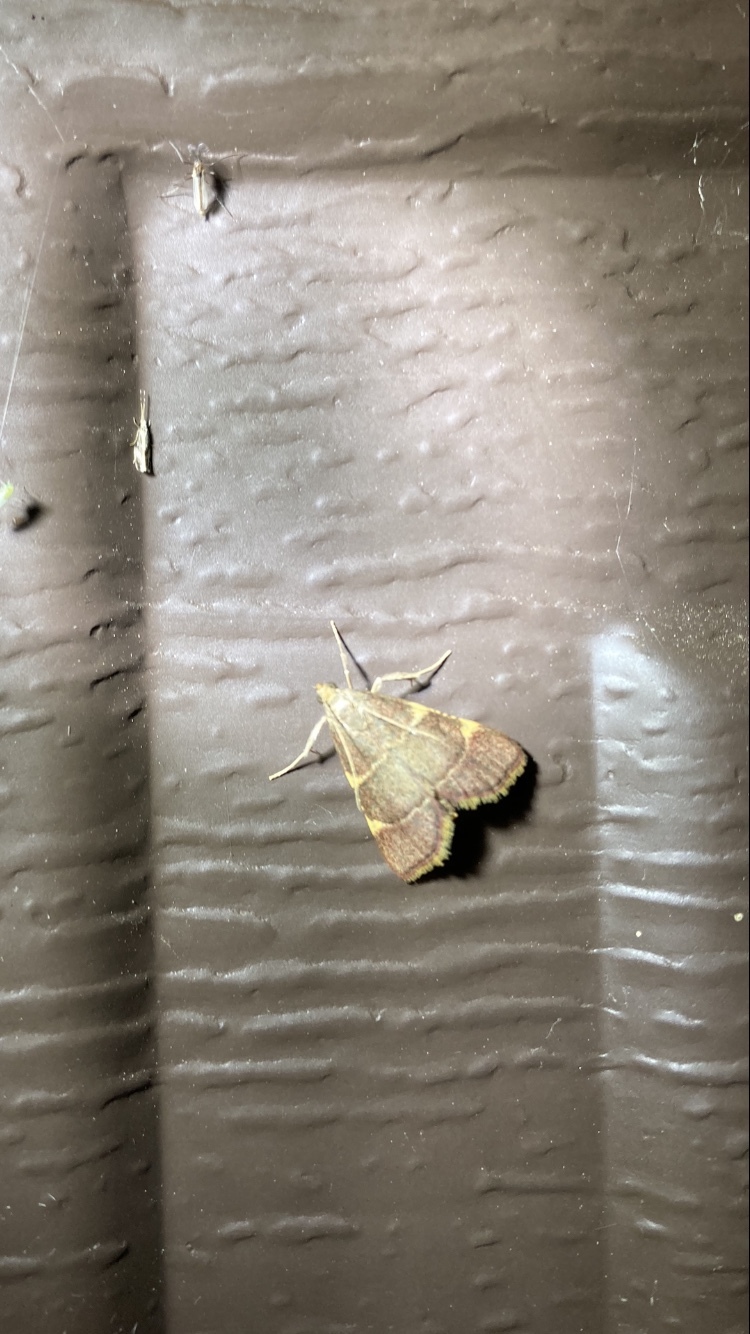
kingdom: Animalia
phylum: Arthropoda
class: Insecta
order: Lepidoptera
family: Pyralidae
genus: Hypsopygia
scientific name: Hypsopygia olinalis
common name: Yellow-fringed dolichomia moth
